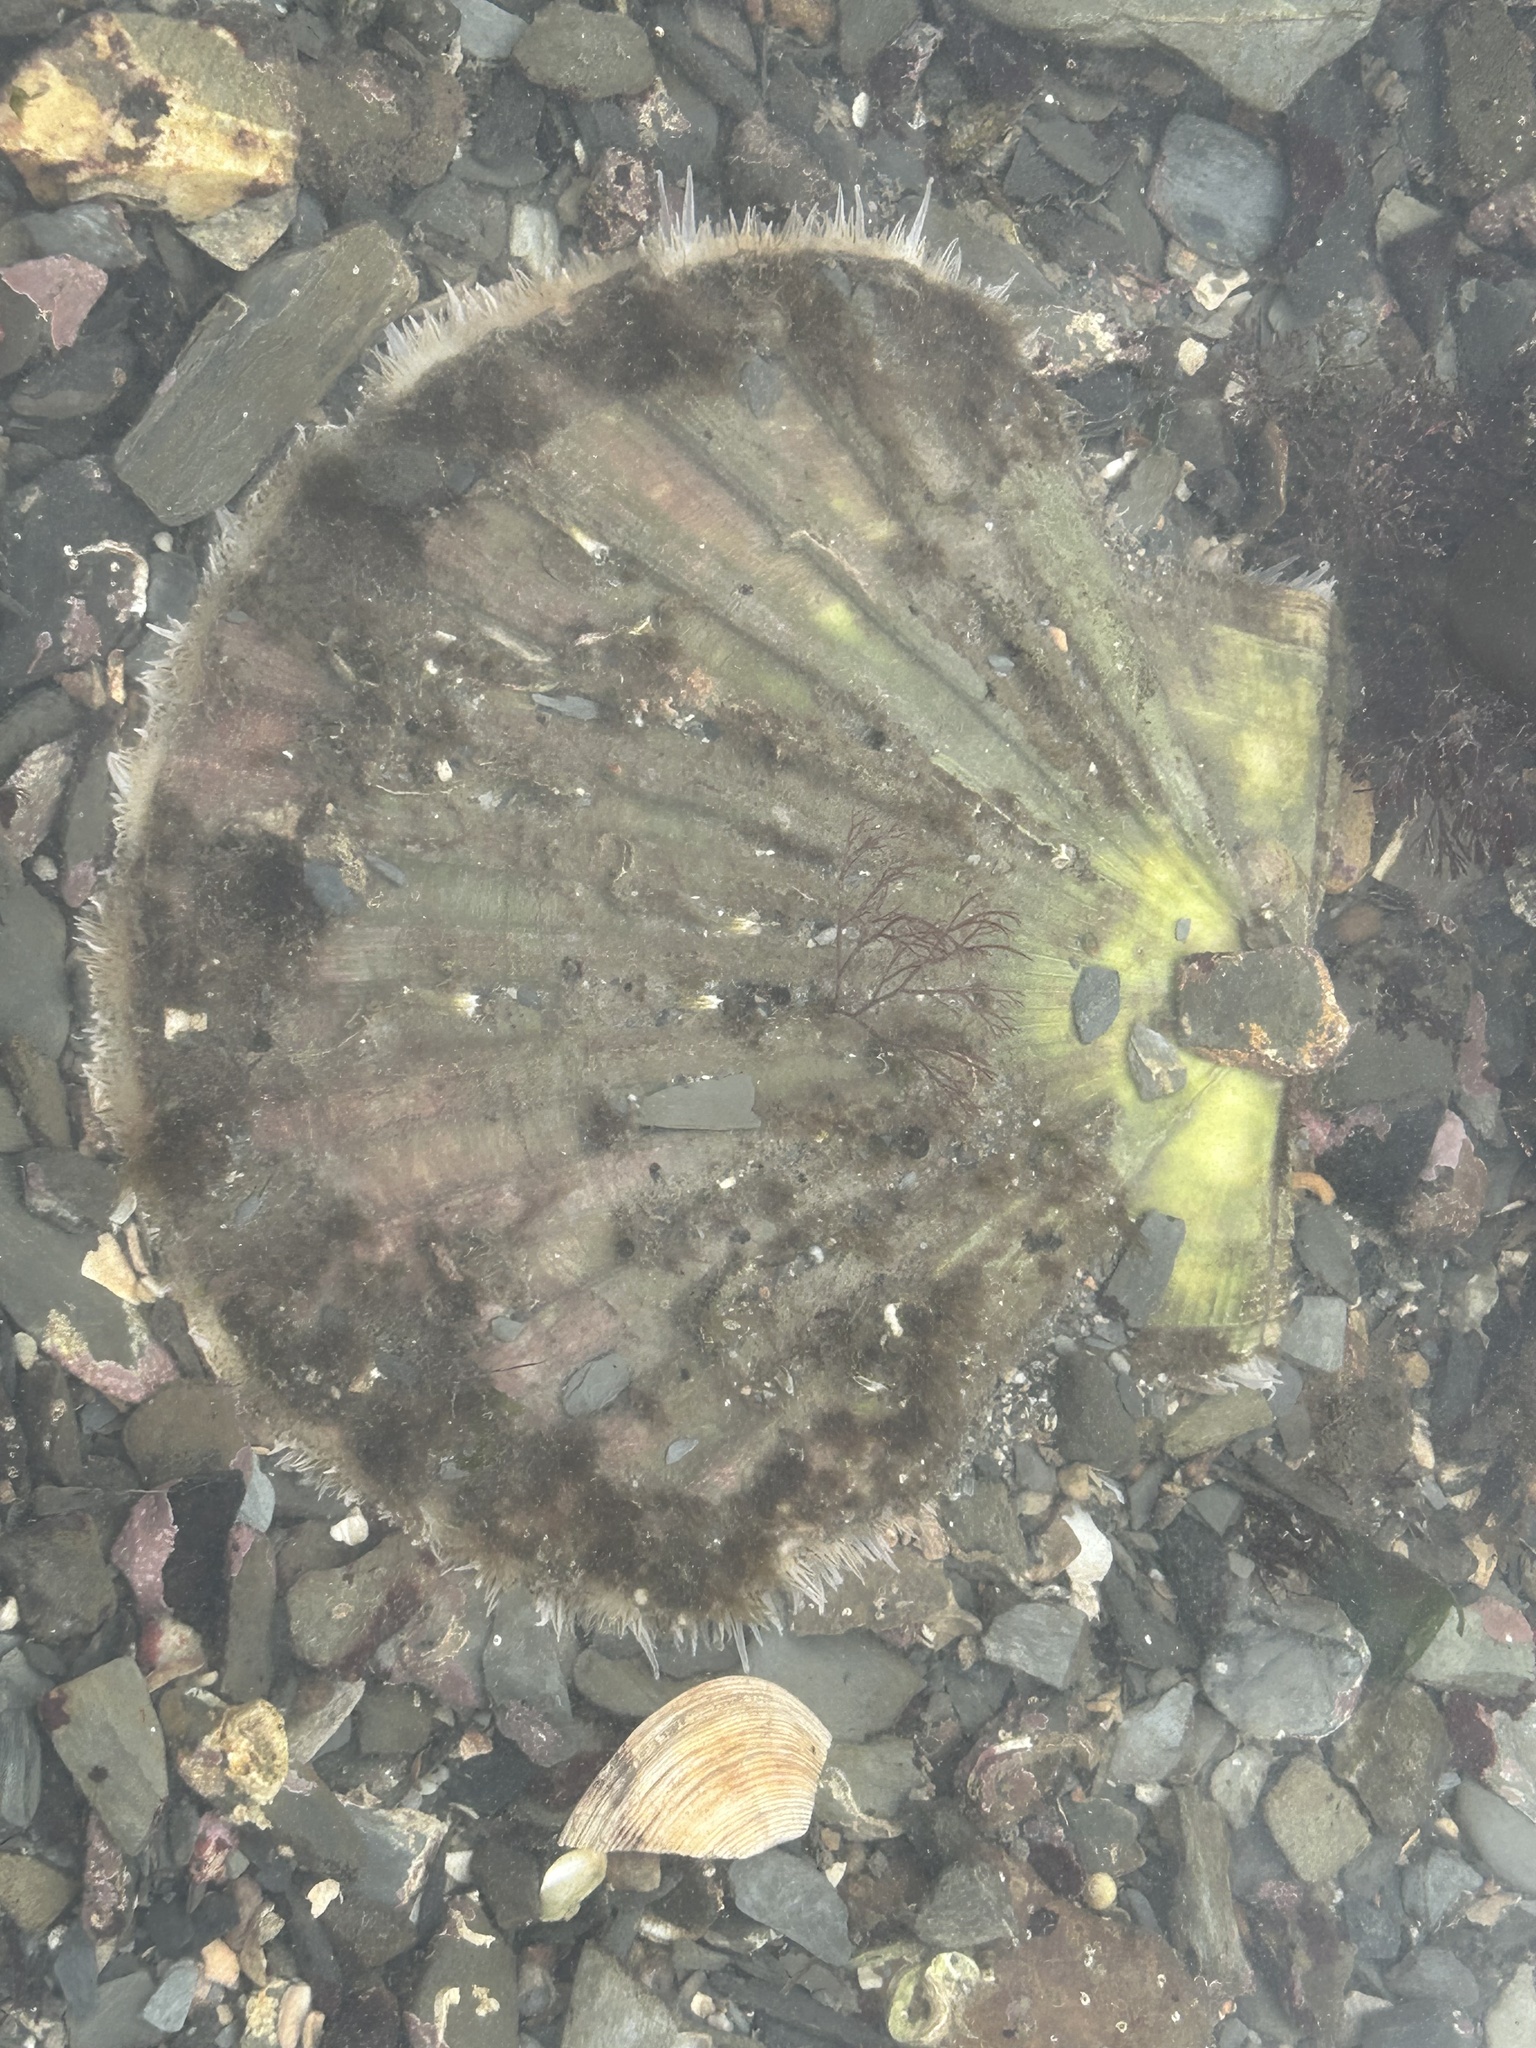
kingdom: Animalia
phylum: Mollusca
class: Bivalvia
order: Pectinida
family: Pectinidae
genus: Pecten
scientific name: Pecten maximus
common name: Great scallop
